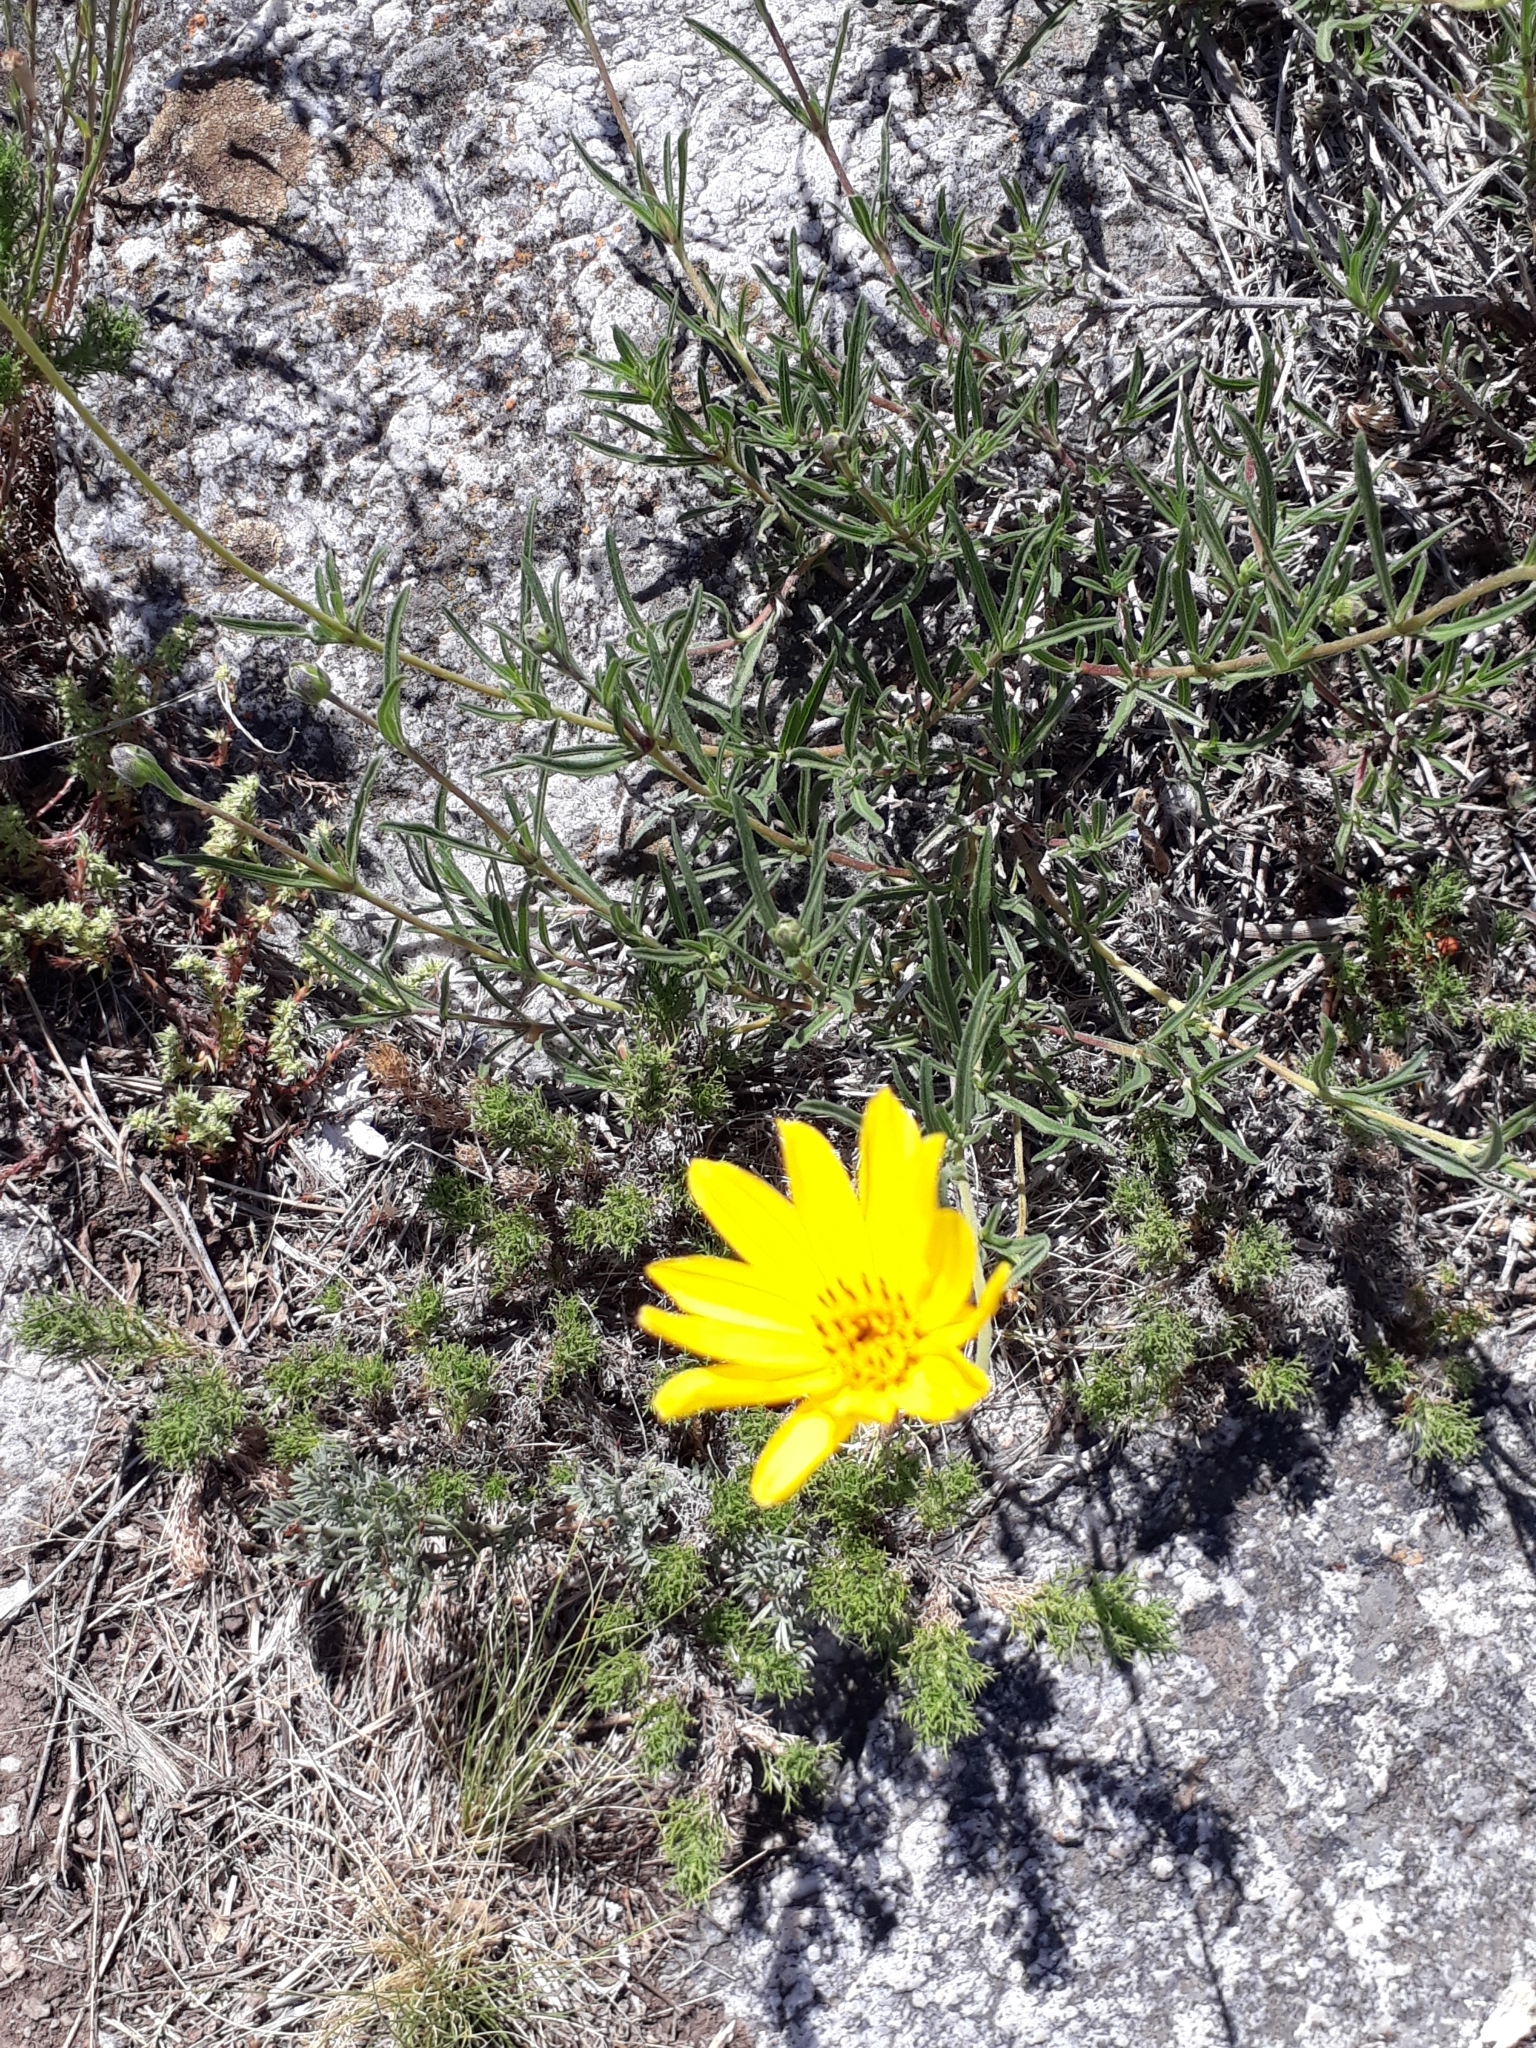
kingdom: Plantae
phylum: Tracheophyta
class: Magnoliopsida
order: Asterales
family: Asteraceae
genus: Zexmenia
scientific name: Zexmenia buphtalmiflora
